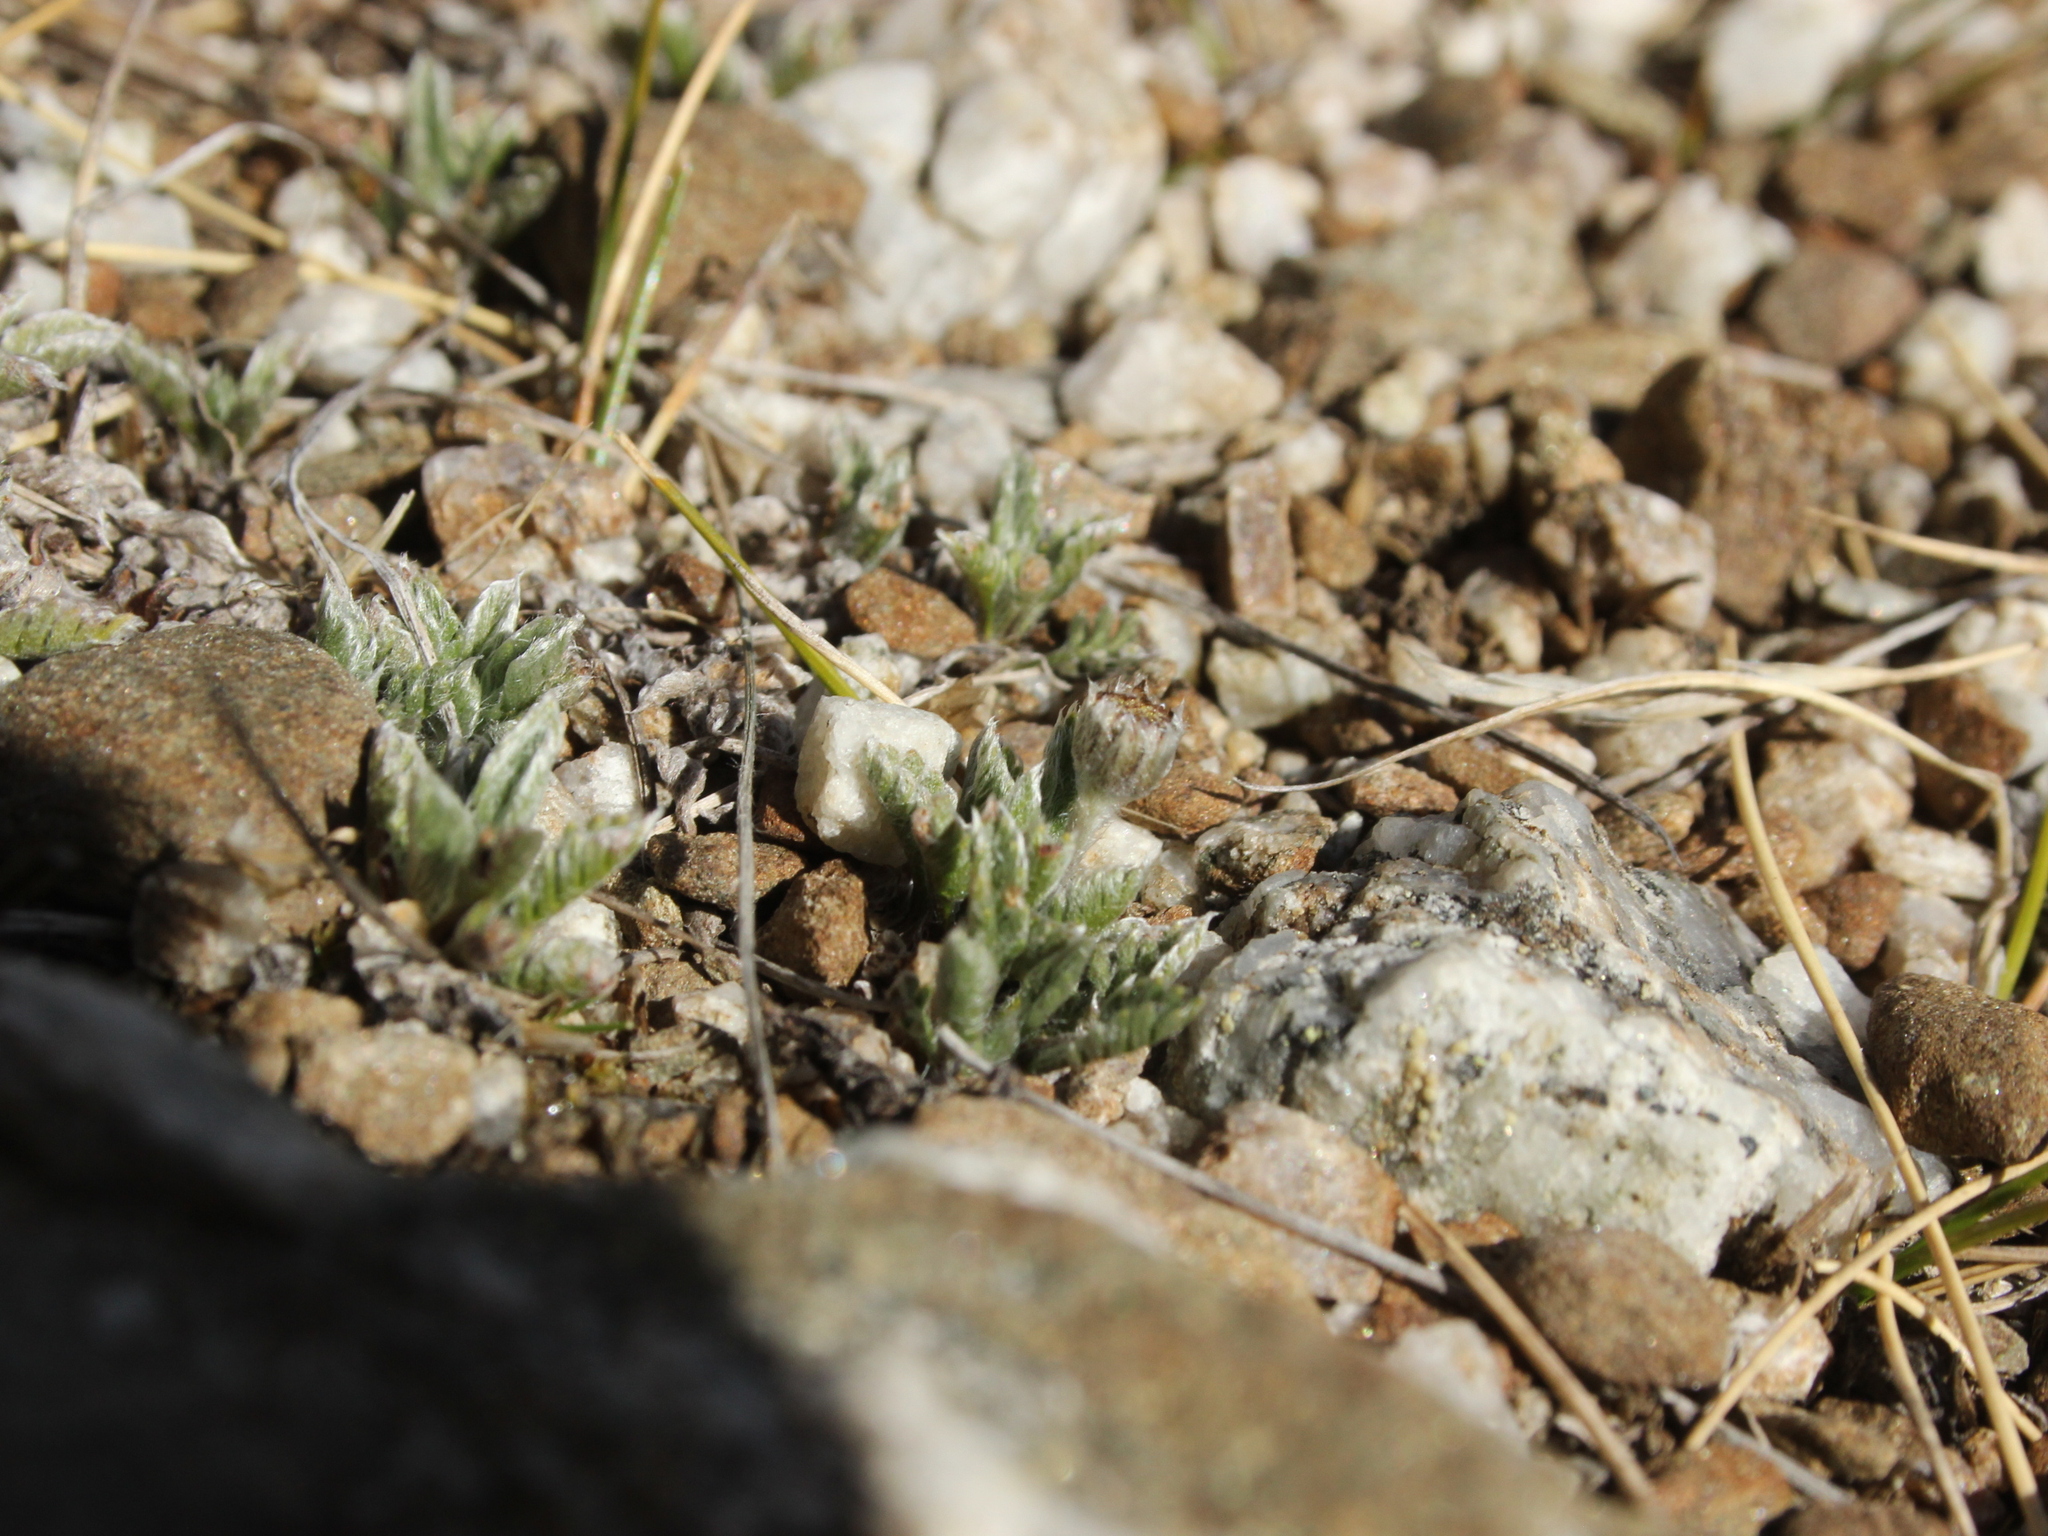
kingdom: Plantae
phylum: Tracheophyta
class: Magnoliopsida
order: Asterales
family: Asteraceae
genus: Leptinella
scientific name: Leptinella pectinata
